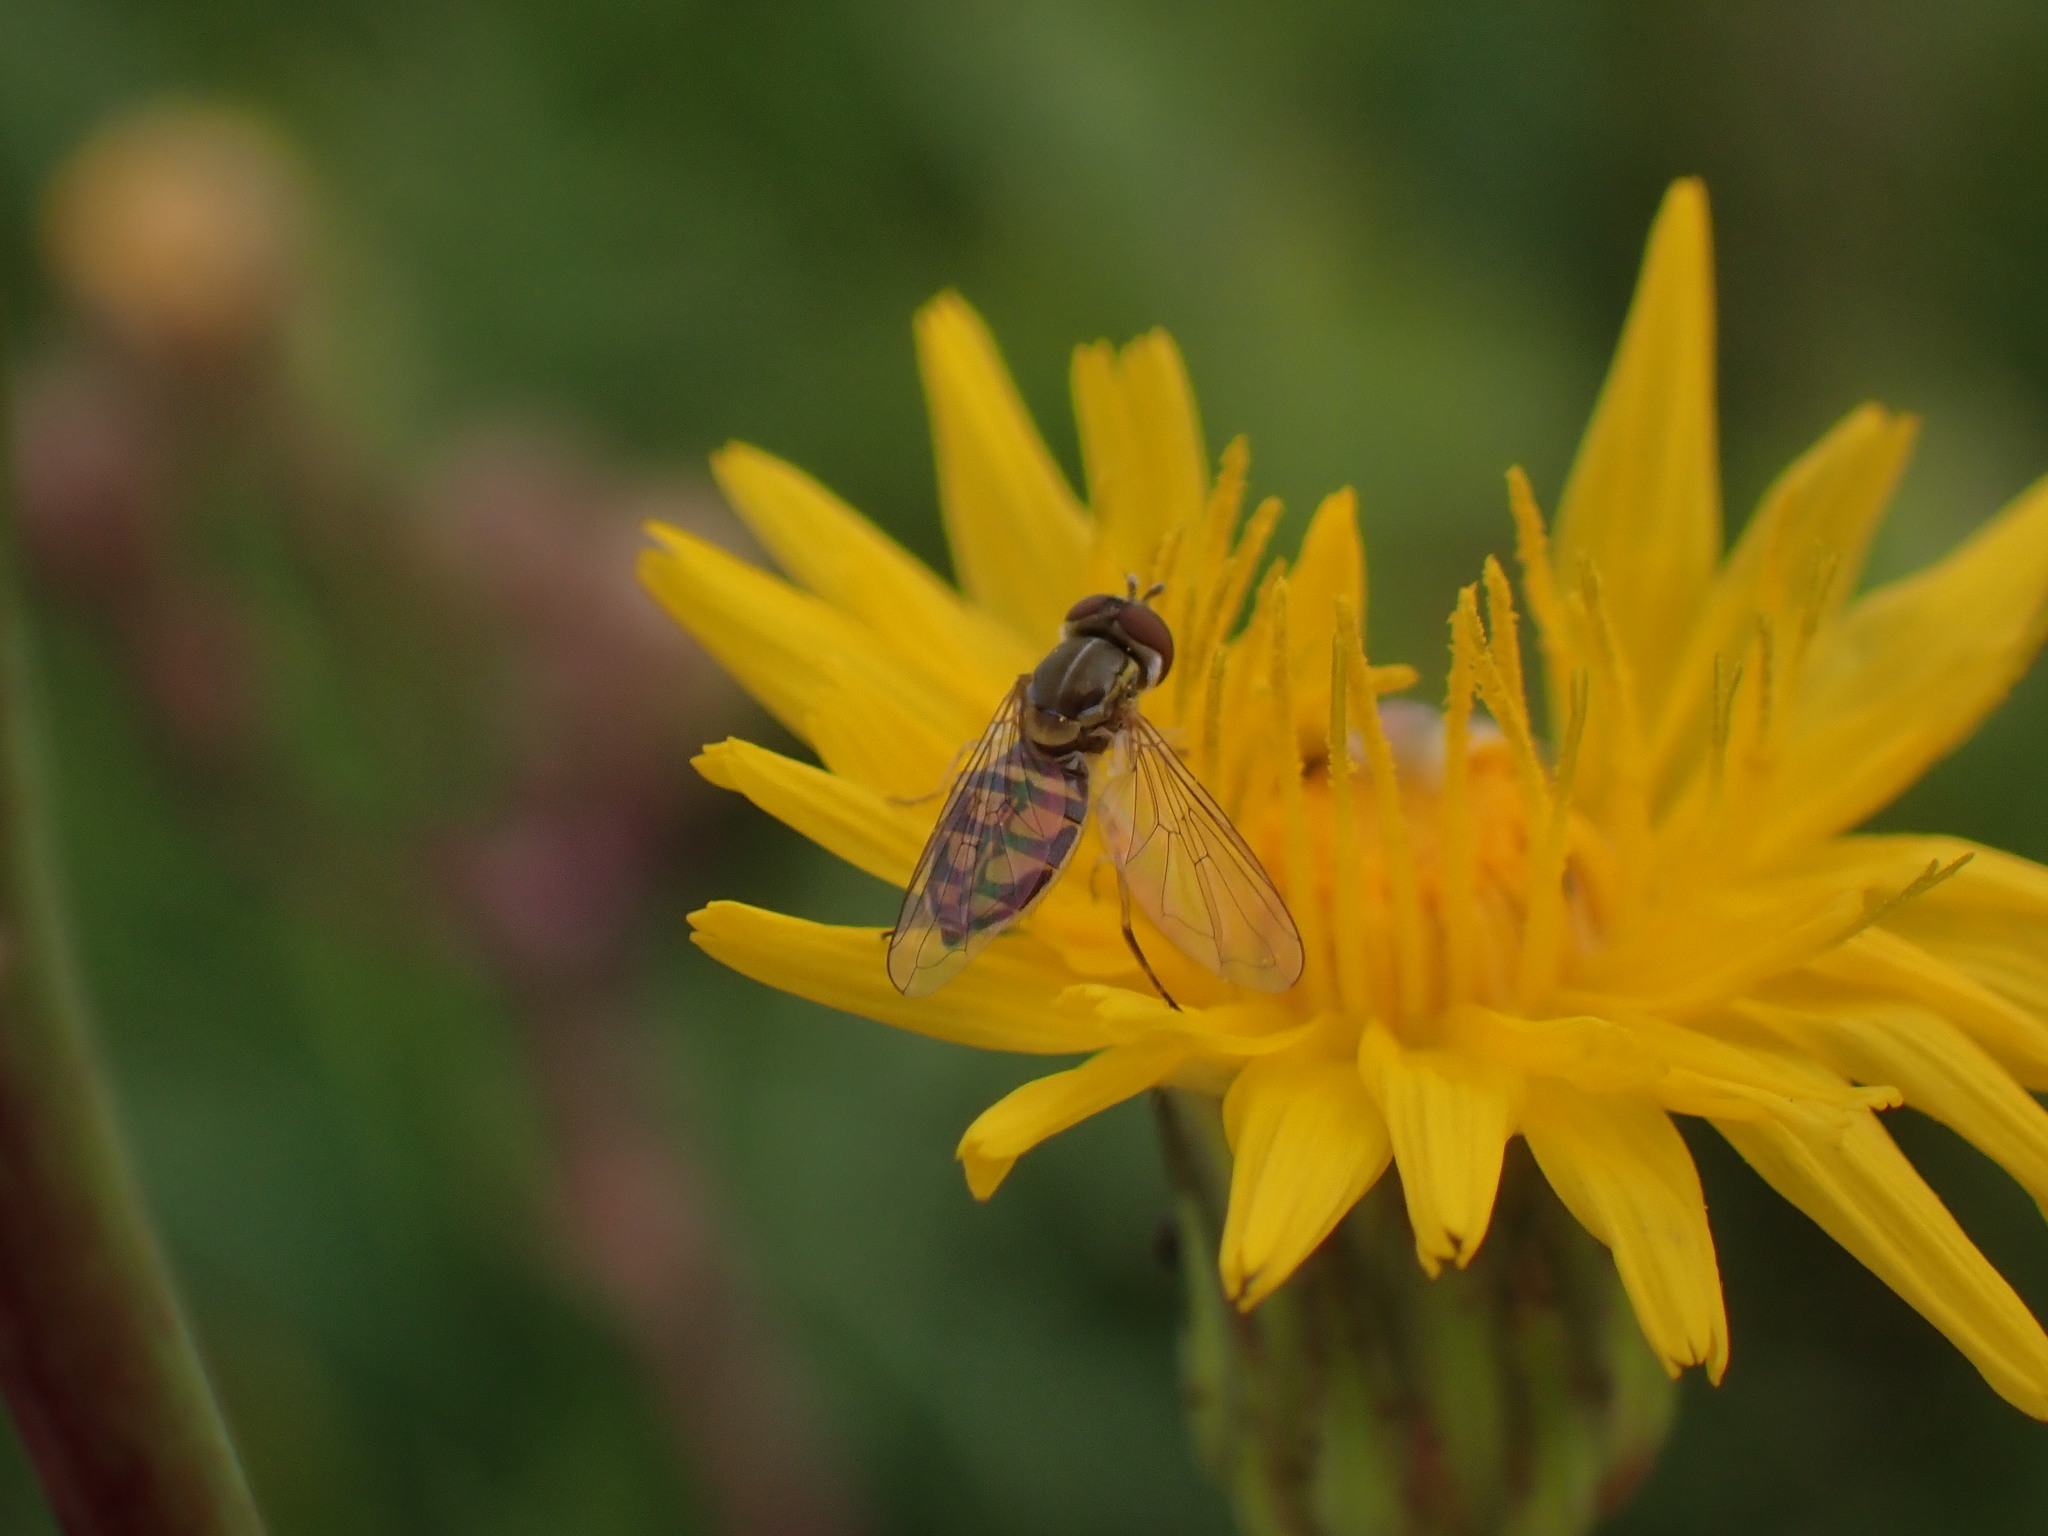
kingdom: Animalia
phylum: Arthropoda
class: Insecta
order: Diptera
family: Syrphidae
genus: Toxomerus
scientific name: Toxomerus marginatus
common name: Syrphid fly
